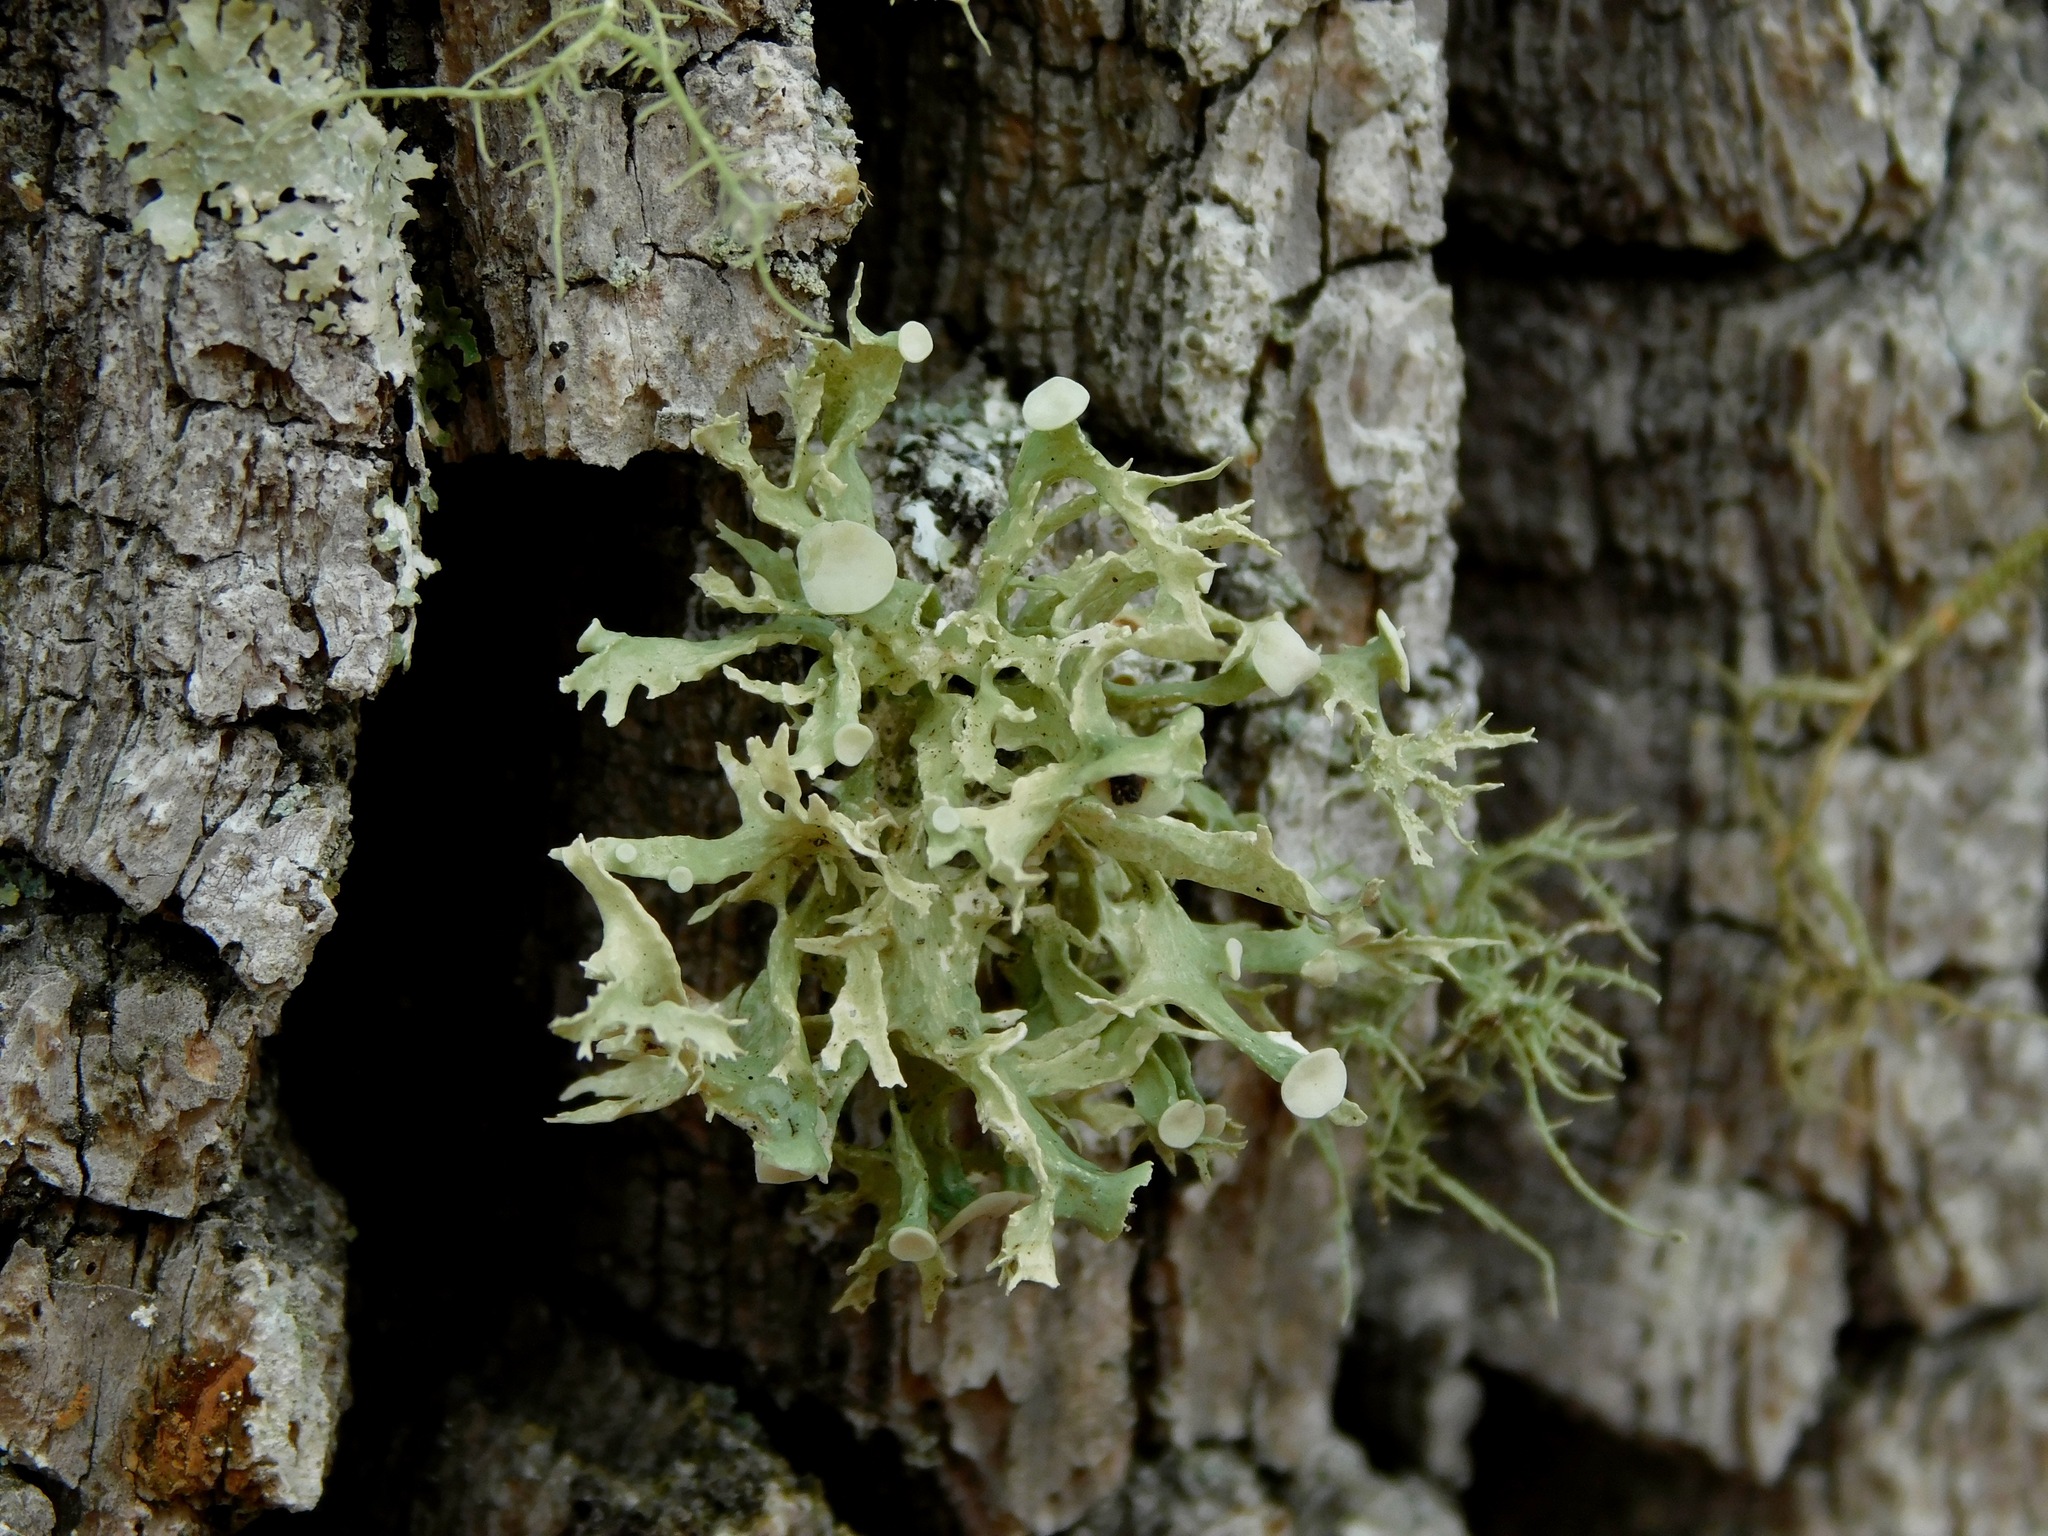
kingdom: Fungi
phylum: Ascomycota
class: Lecanoromycetes
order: Lecanorales
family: Ramalinaceae
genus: Ramalina
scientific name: Ramalina americana
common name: Sinewed bush lichen
